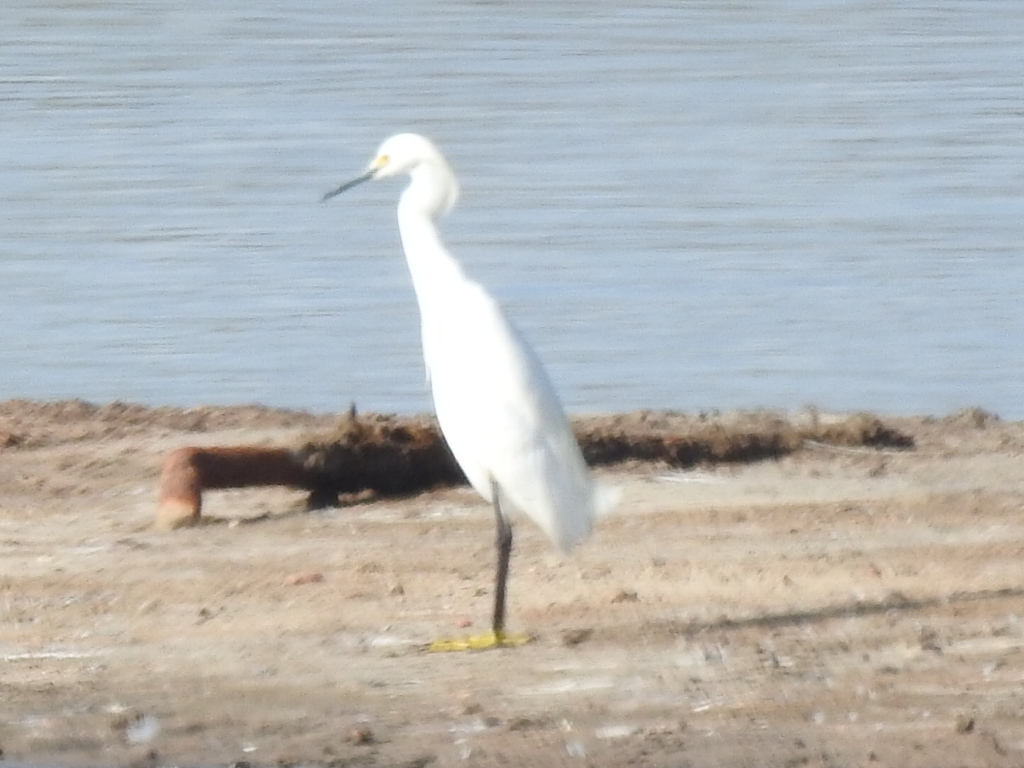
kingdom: Animalia
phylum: Chordata
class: Aves
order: Pelecaniformes
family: Ardeidae
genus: Egretta
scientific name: Egretta thula
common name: Snowy egret
